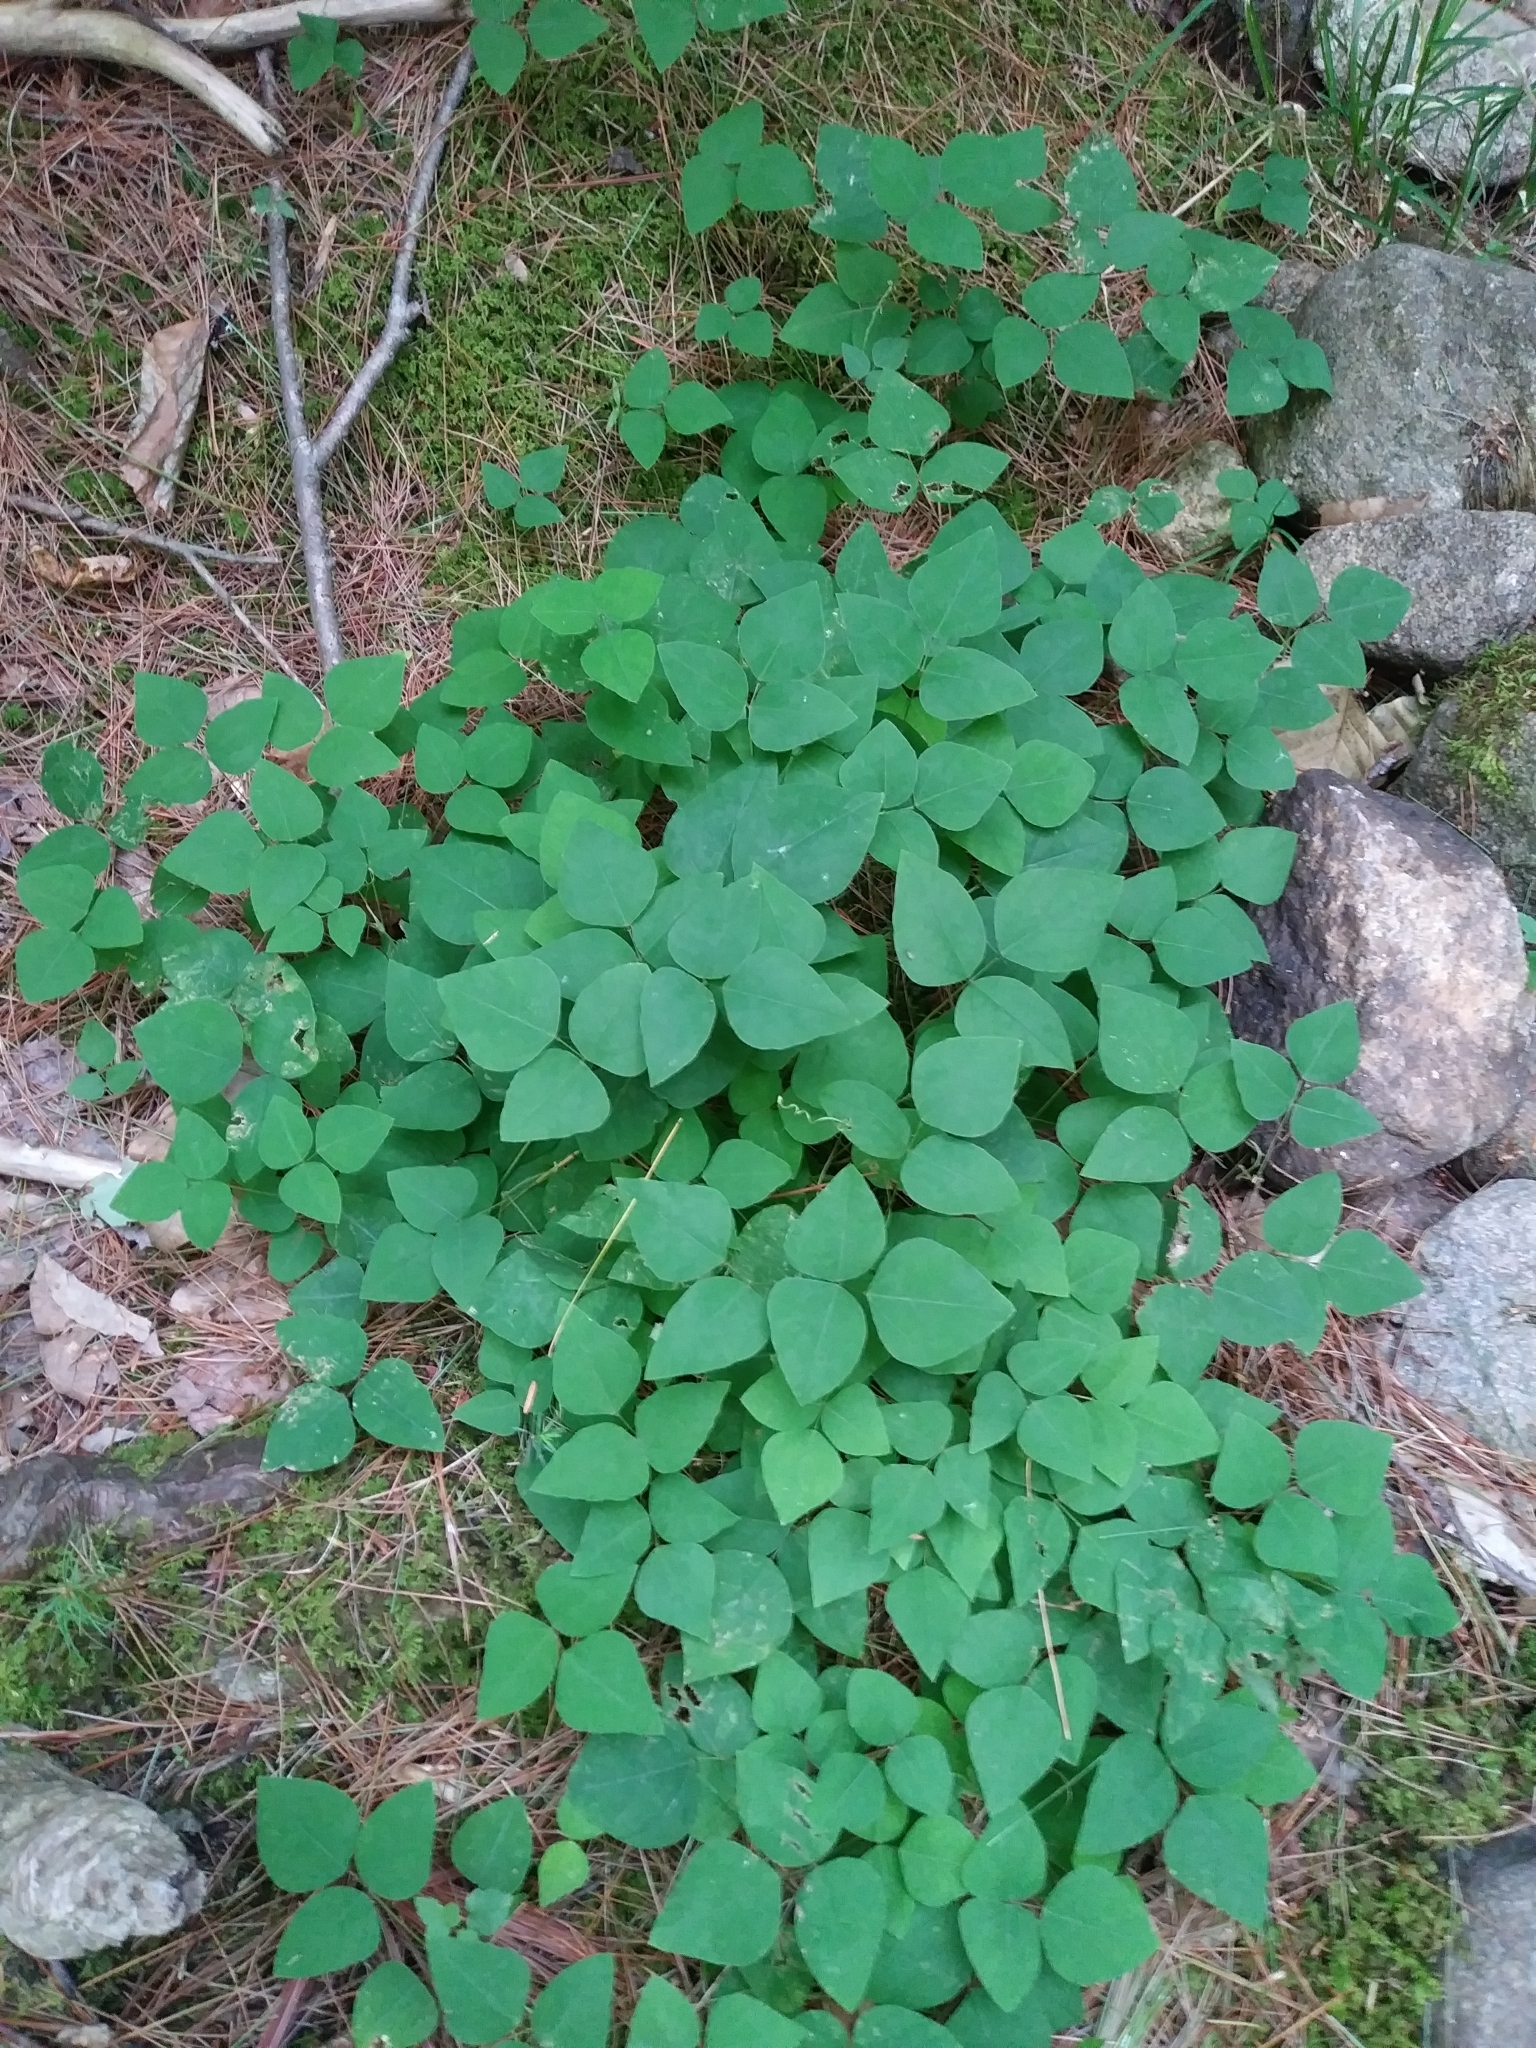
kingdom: Plantae
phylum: Tracheophyta
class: Magnoliopsida
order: Fabales
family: Fabaceae
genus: Amphicarpaea
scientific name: Amphicarpaea bracteata
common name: American hog peanut
